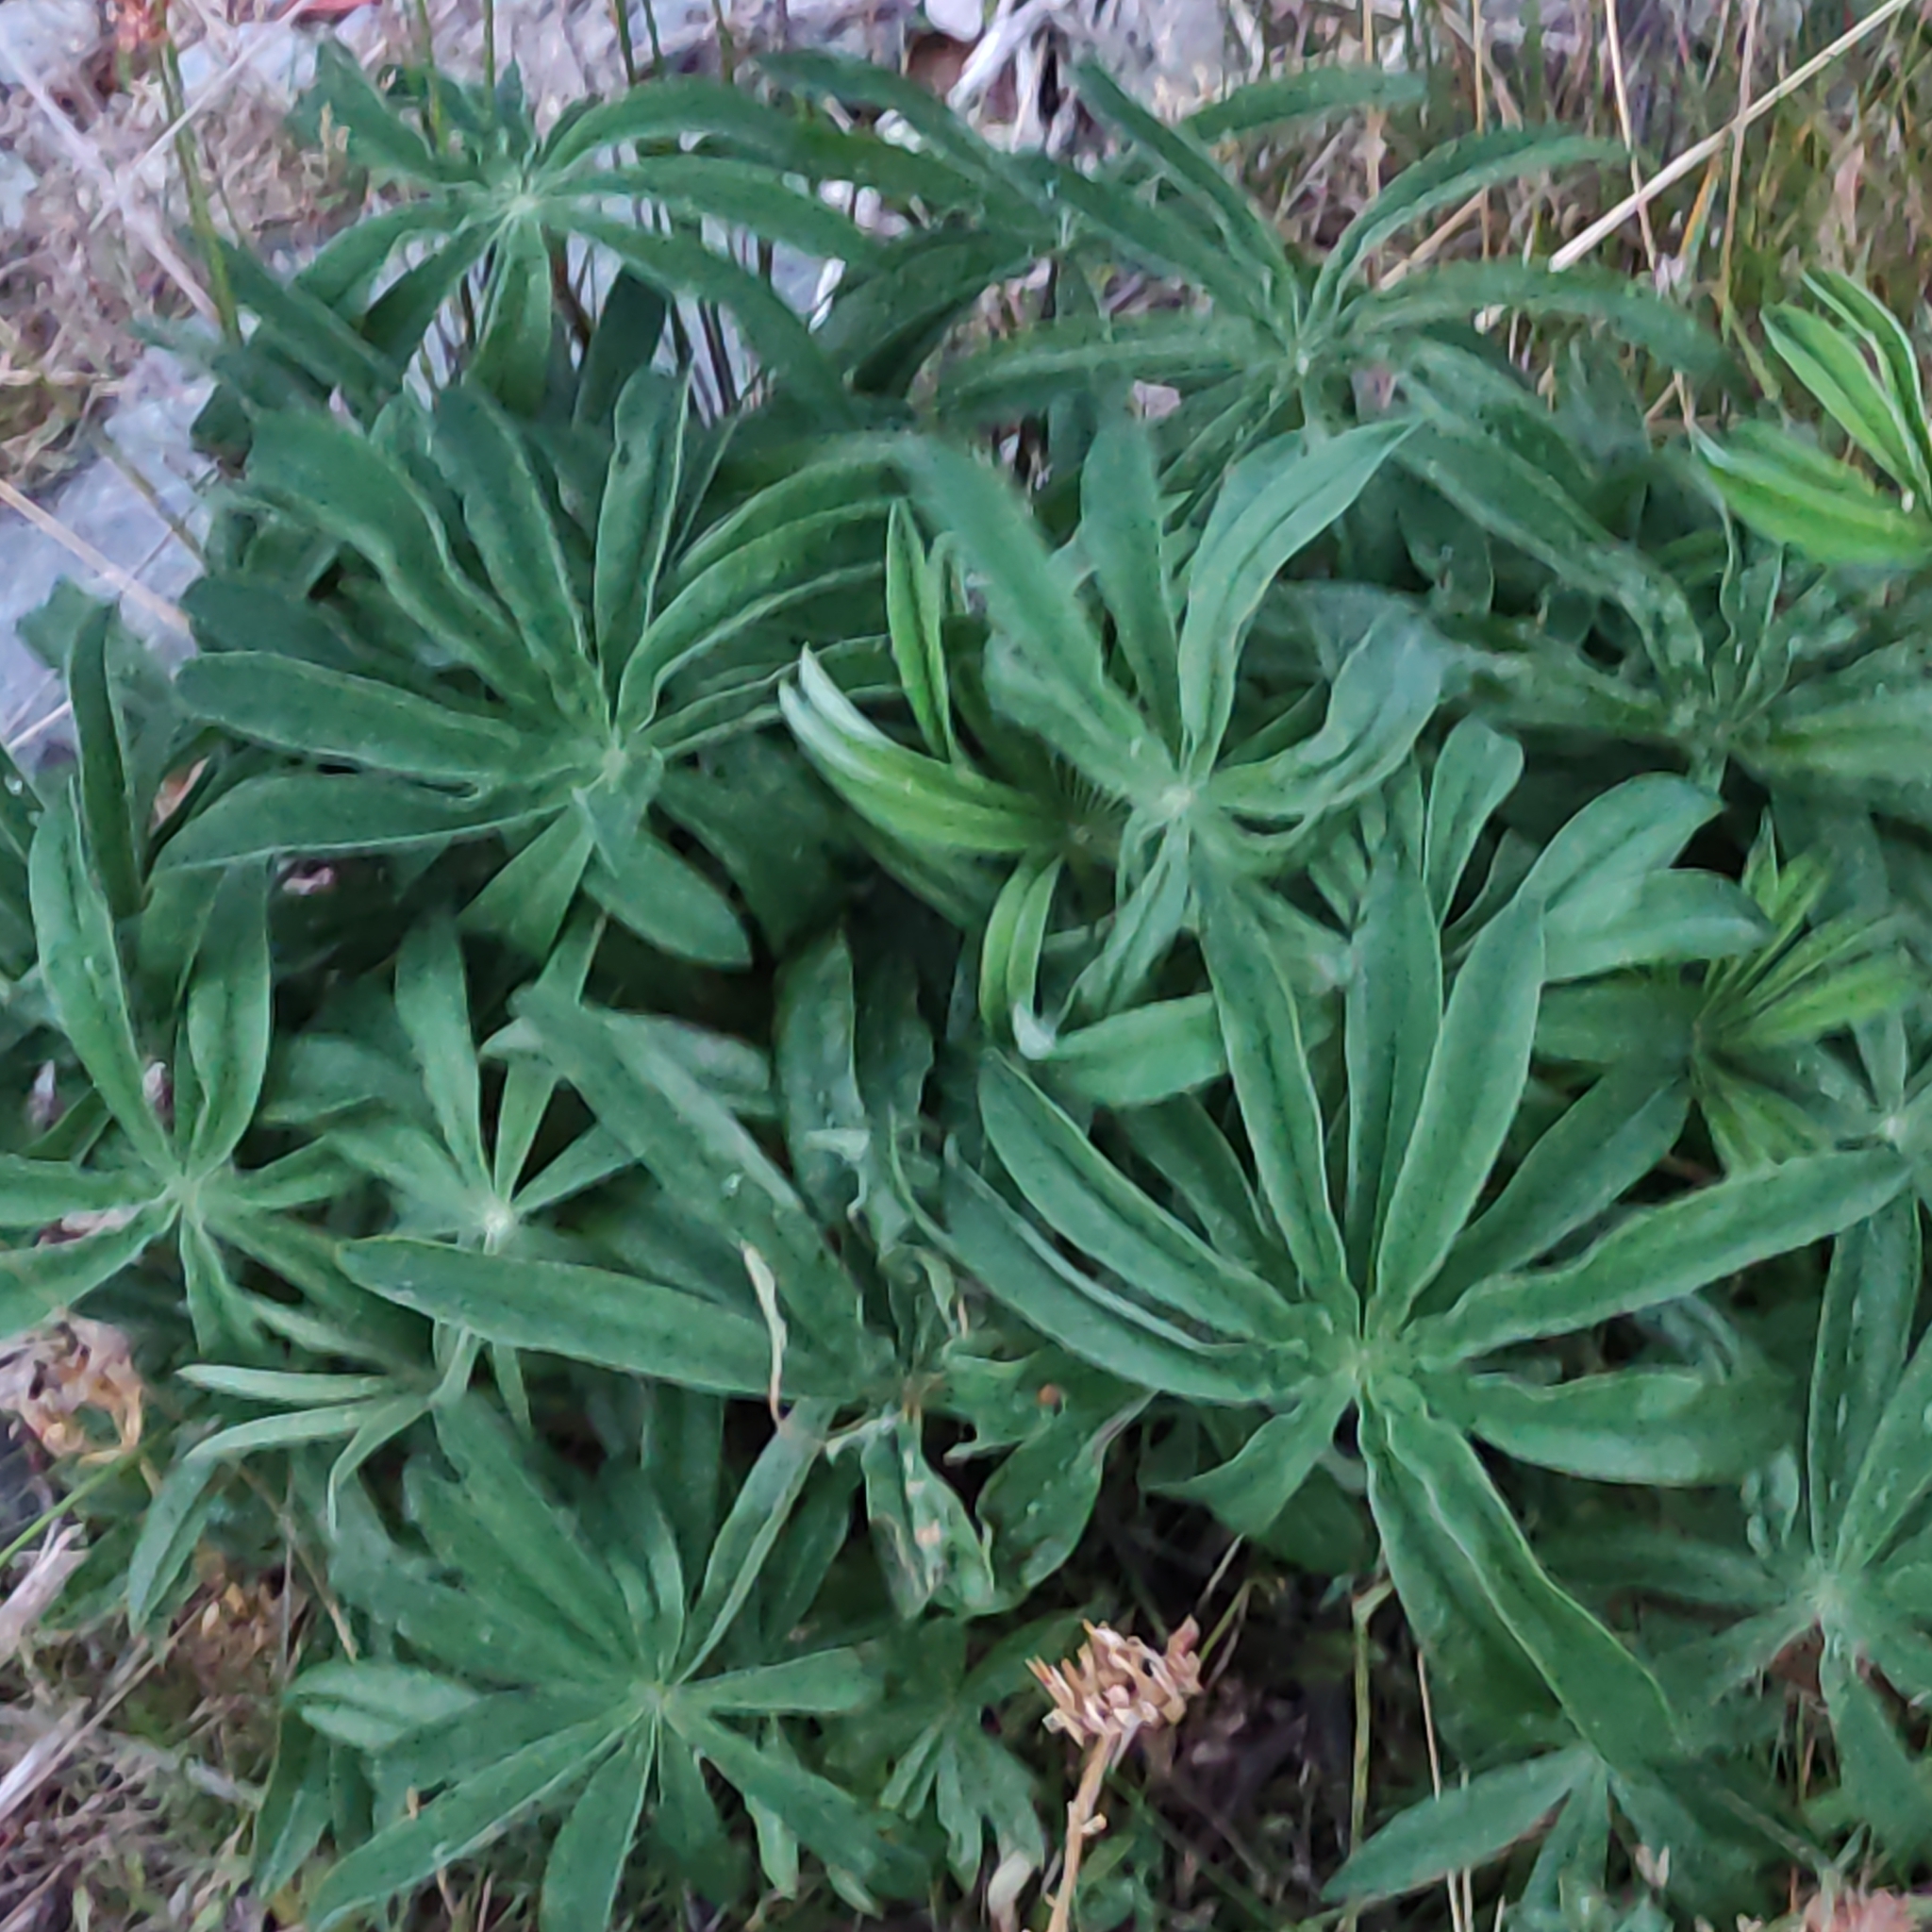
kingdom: Plantae
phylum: Tracheophyta
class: Magnoliopsida
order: Fabales
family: Fabaceae
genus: Lupinus
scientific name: Lupinus polyphyllus
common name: Garden lupin
